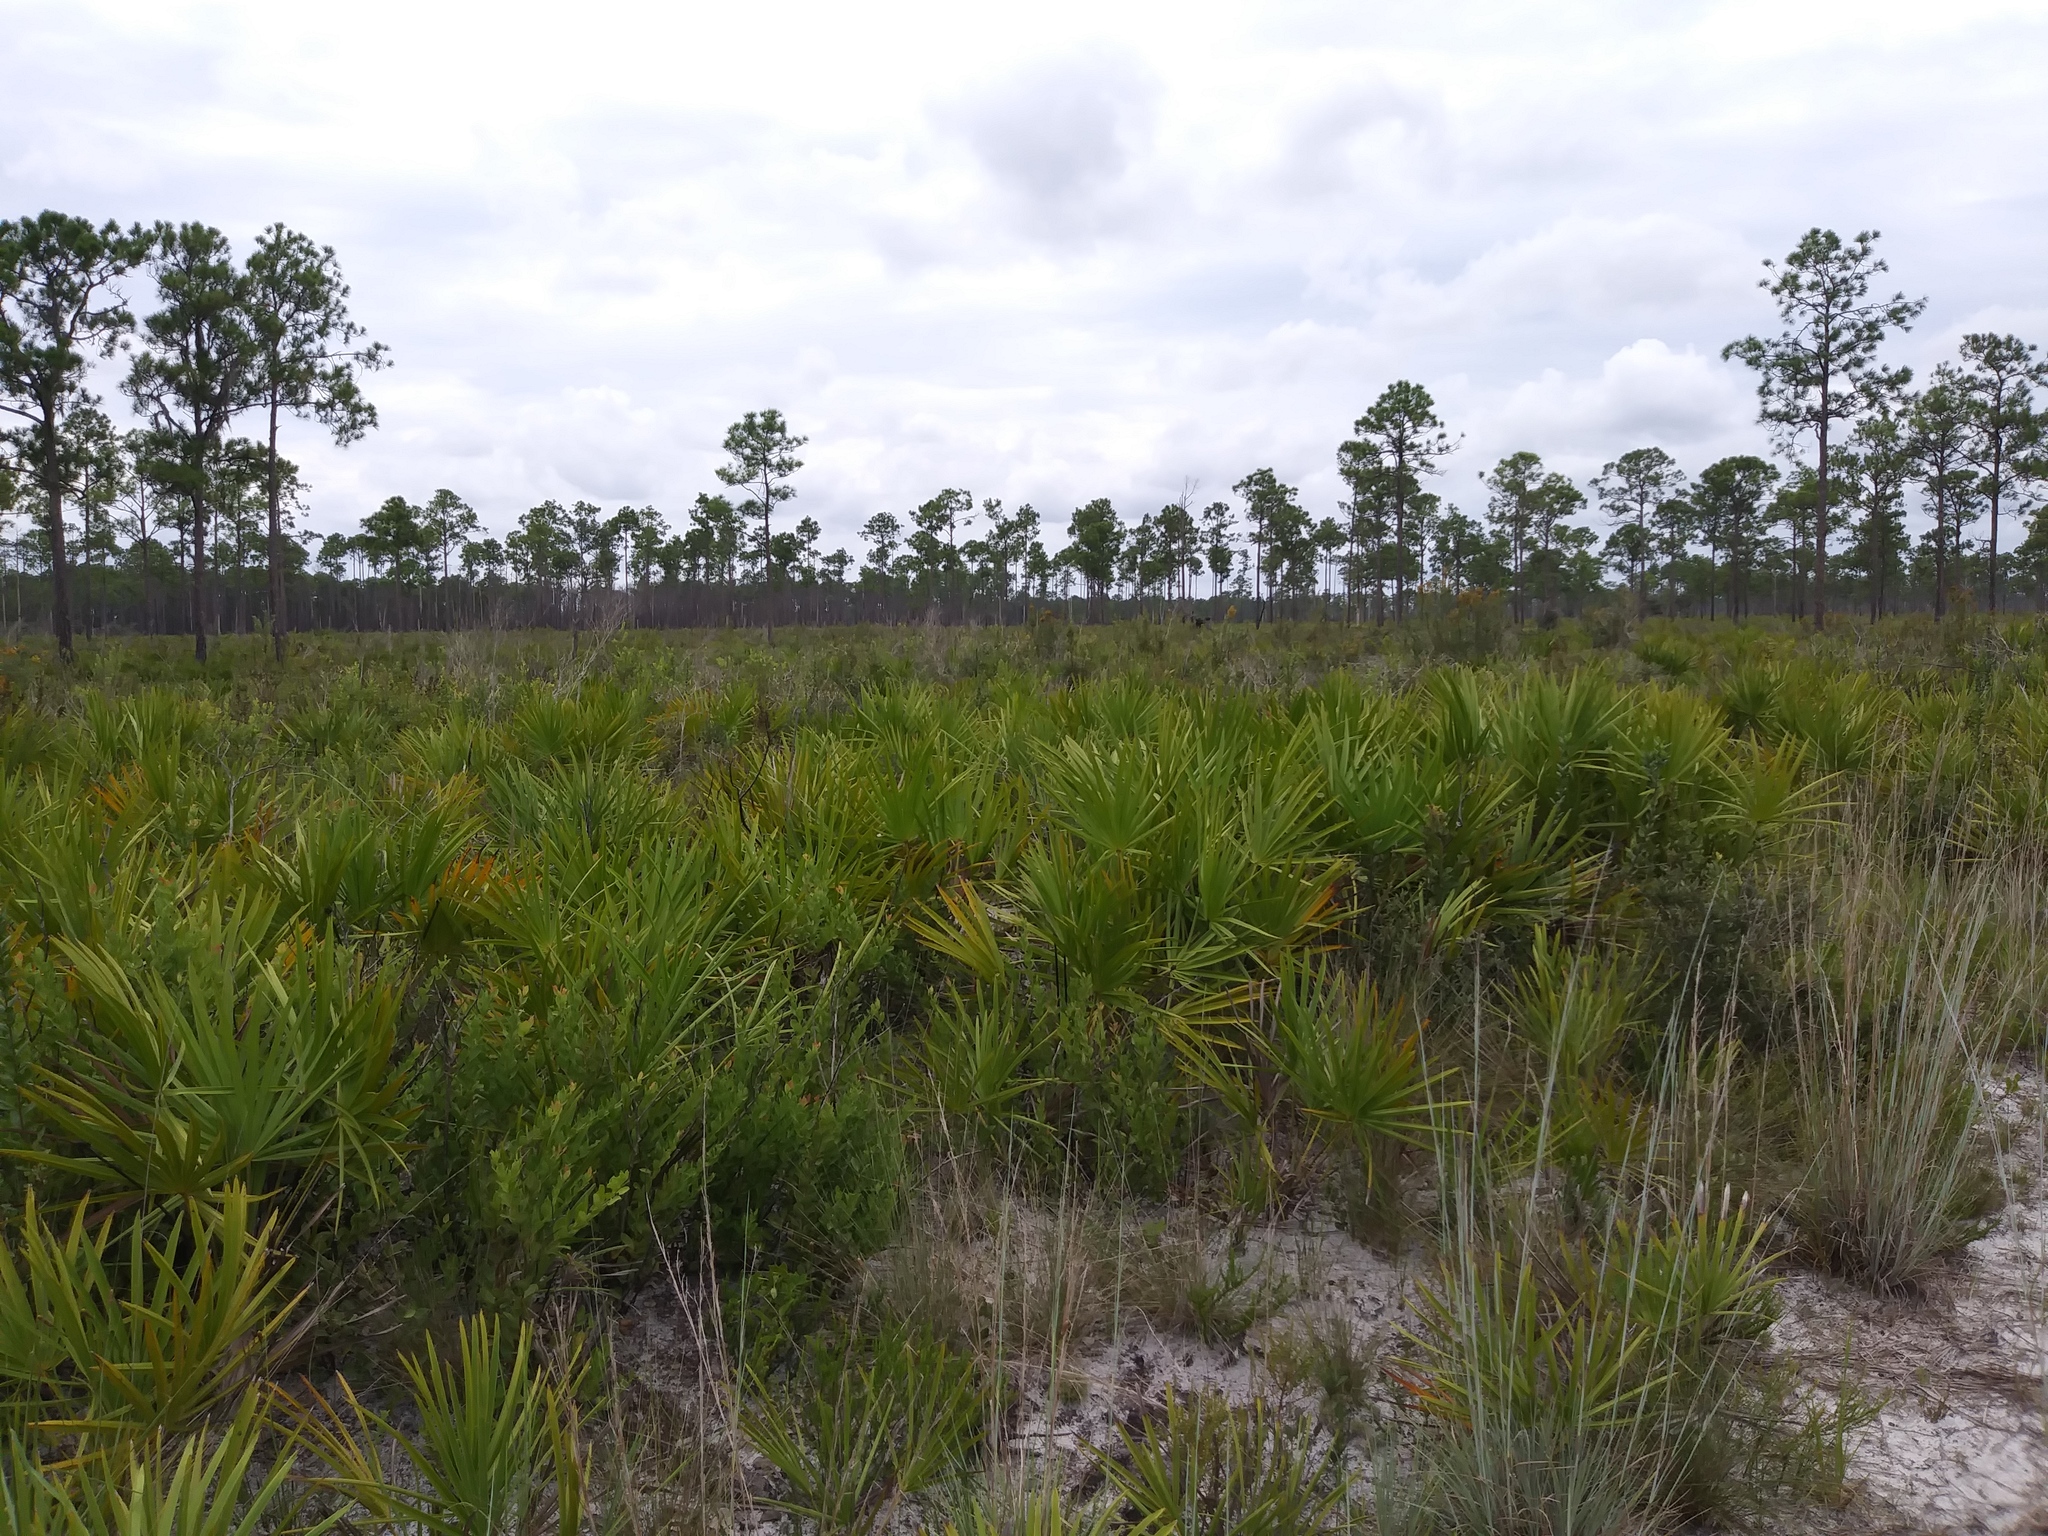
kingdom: Plantae
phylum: Tracheophyta
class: Liliopsida
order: Arecales
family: Arecaceae
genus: Serenoa
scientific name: Serenoa repens
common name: Saw-palmetto
